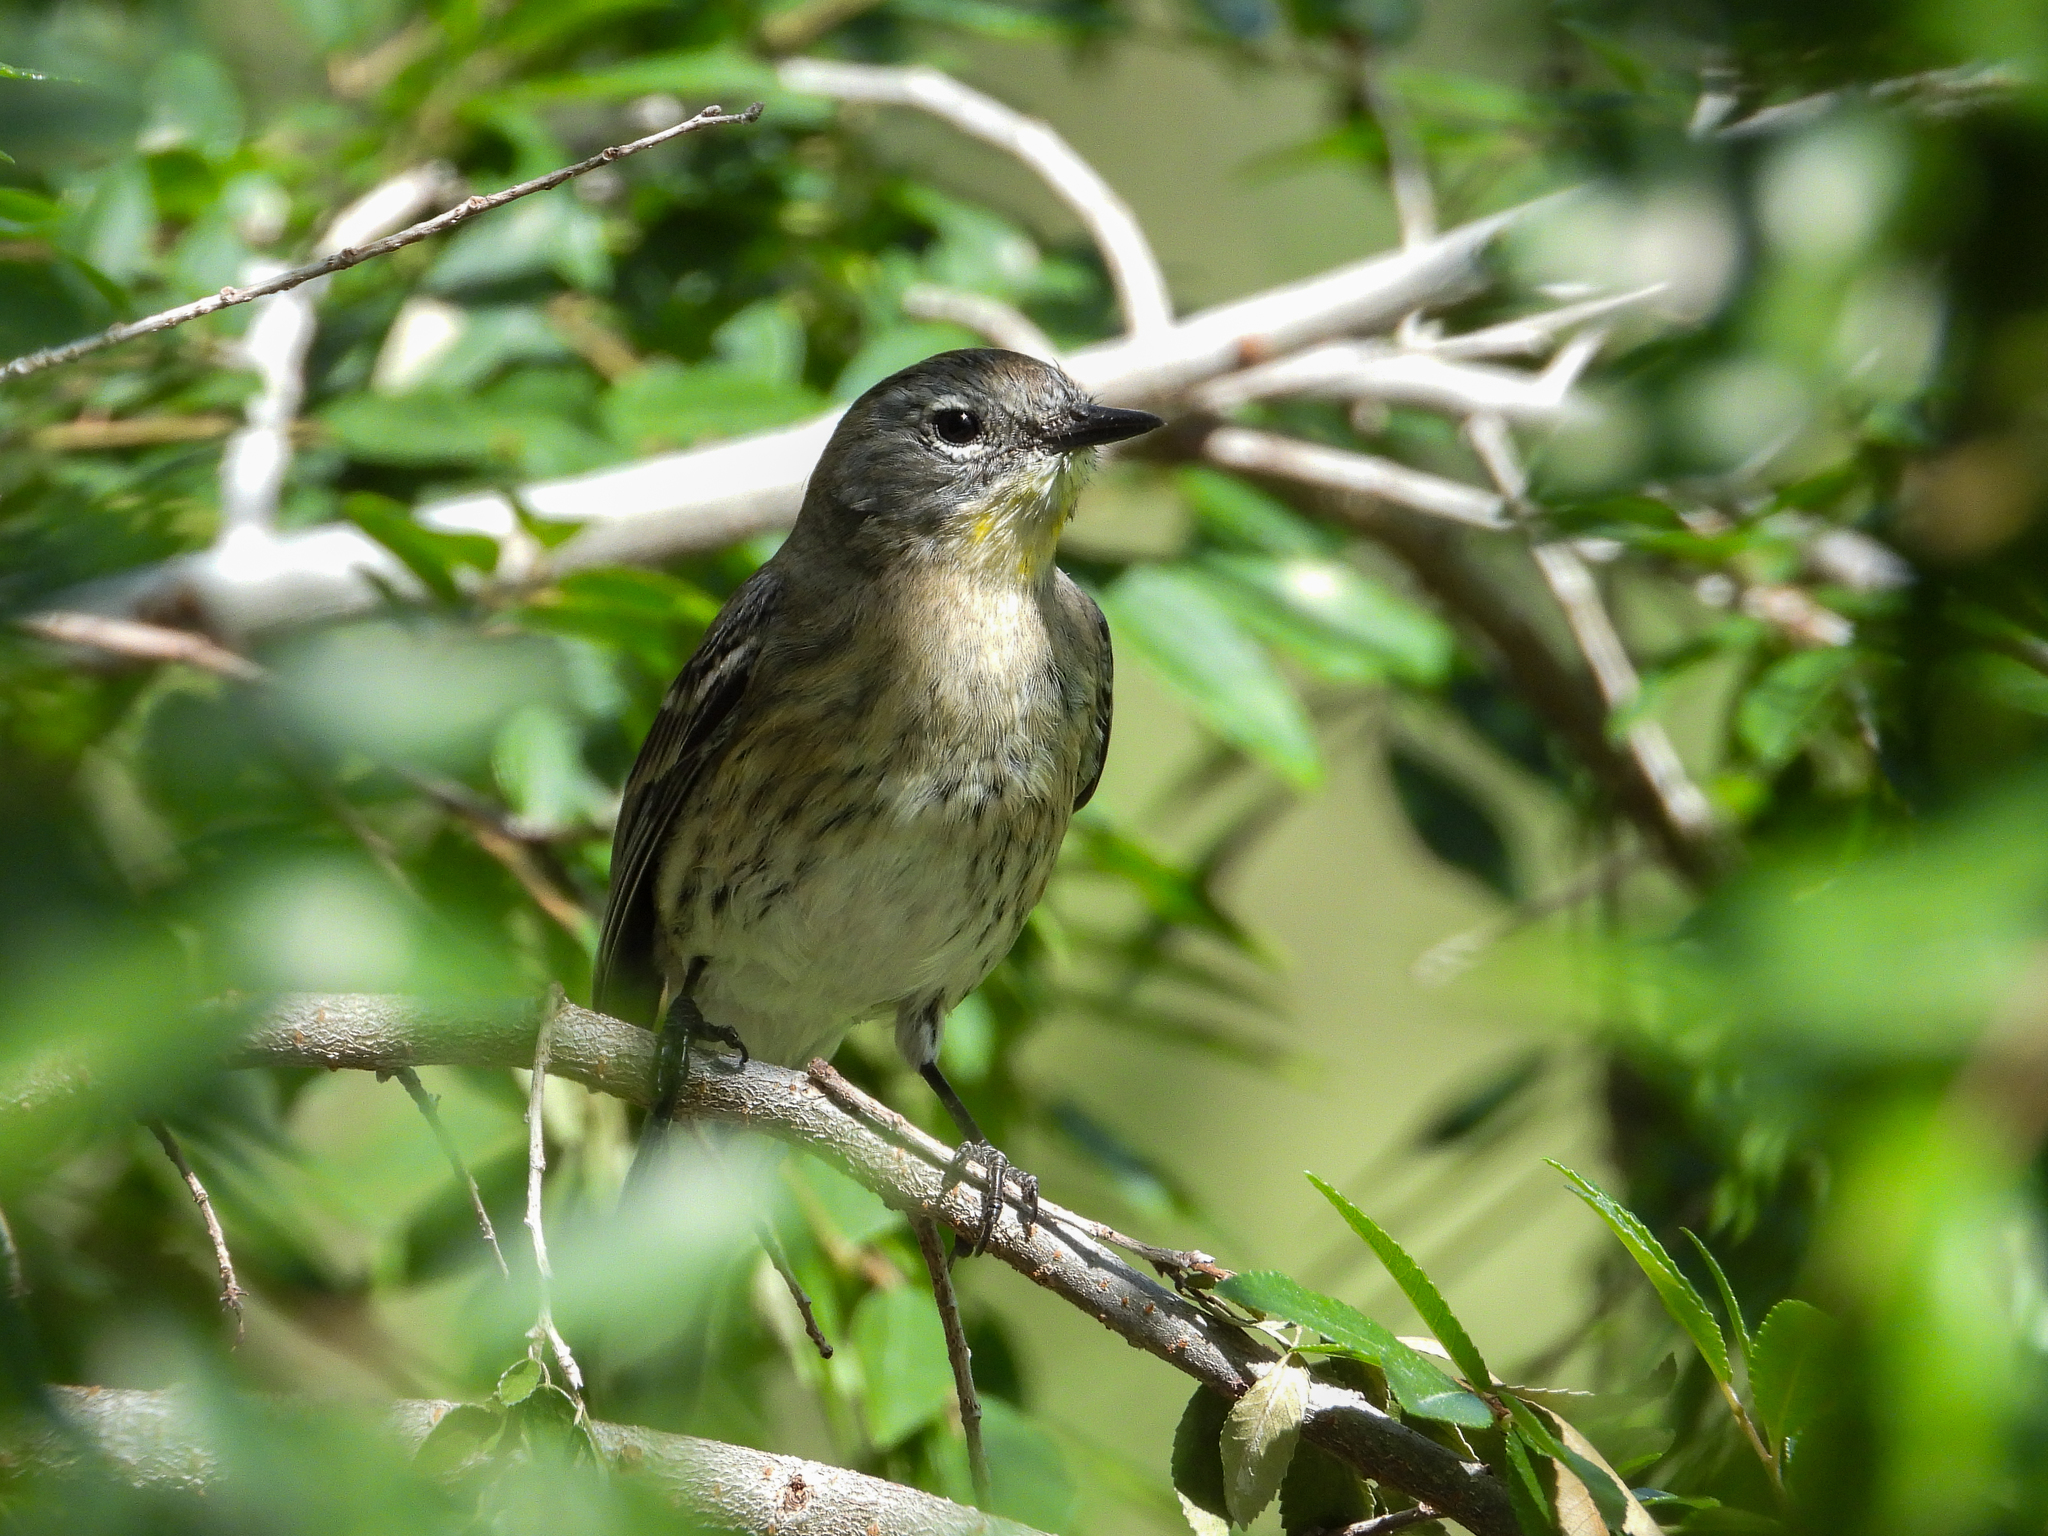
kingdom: Animalia
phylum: Chordata
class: Aves
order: Passeriformes
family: Parulidae
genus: Setophaga
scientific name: Setophaga coronata
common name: Myrtle warbler
